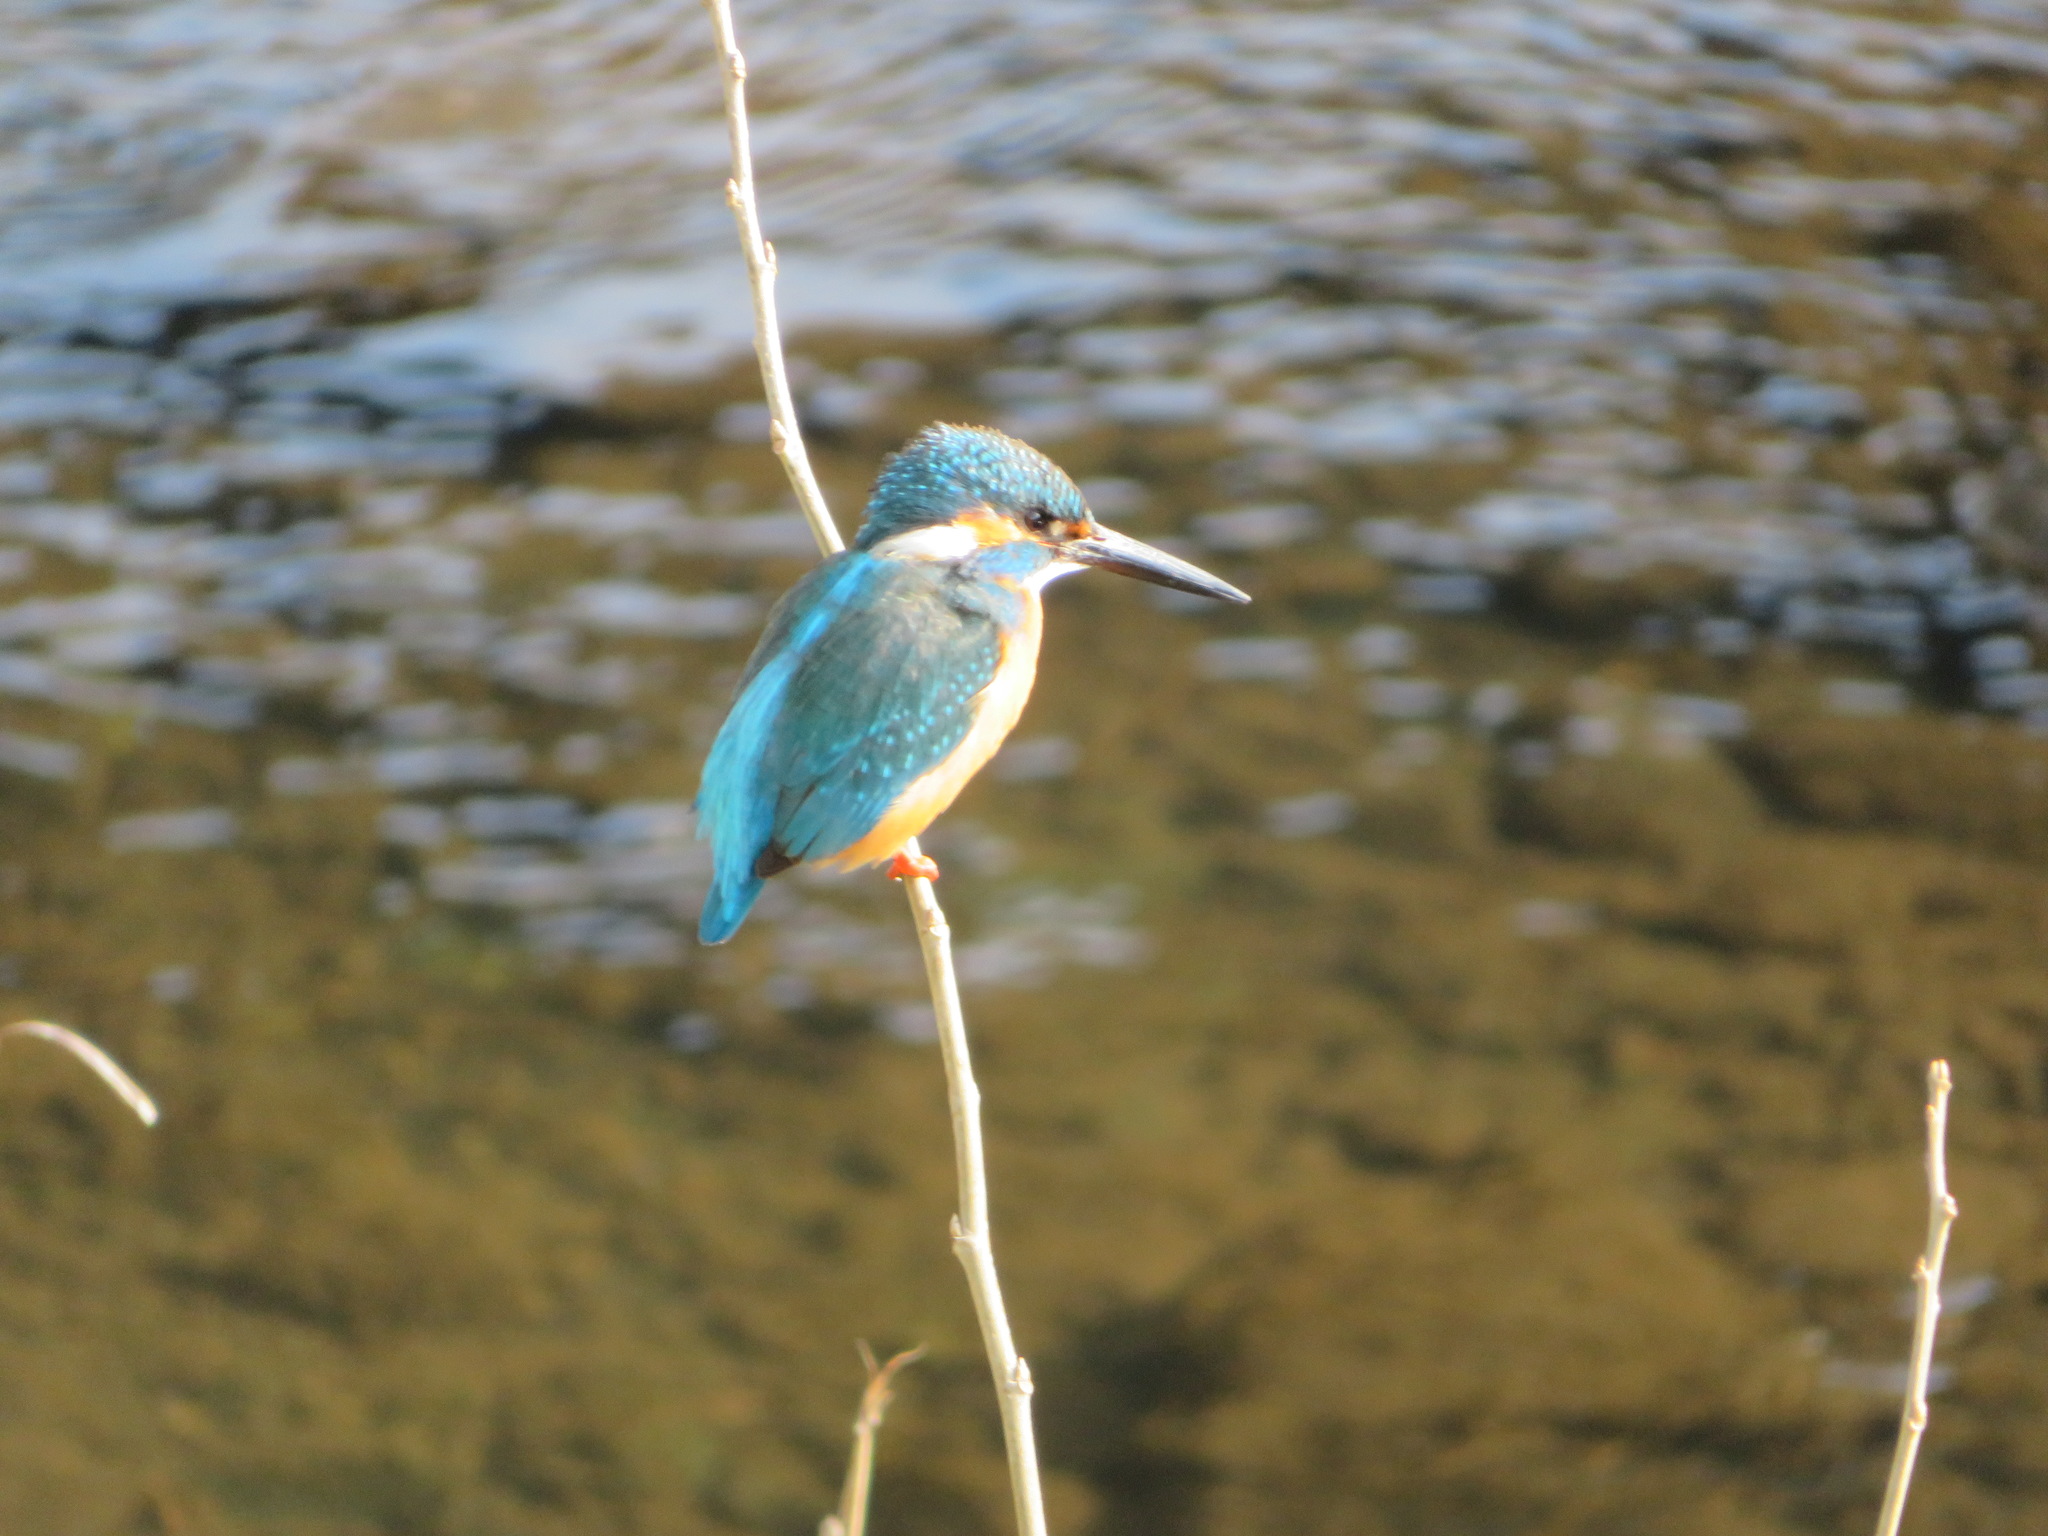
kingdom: Animalia
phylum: Chordata
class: Aves
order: Coraciiformes
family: Alcedinidae
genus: Alcedo
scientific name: Alcedo atthis
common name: Common kingfisher
